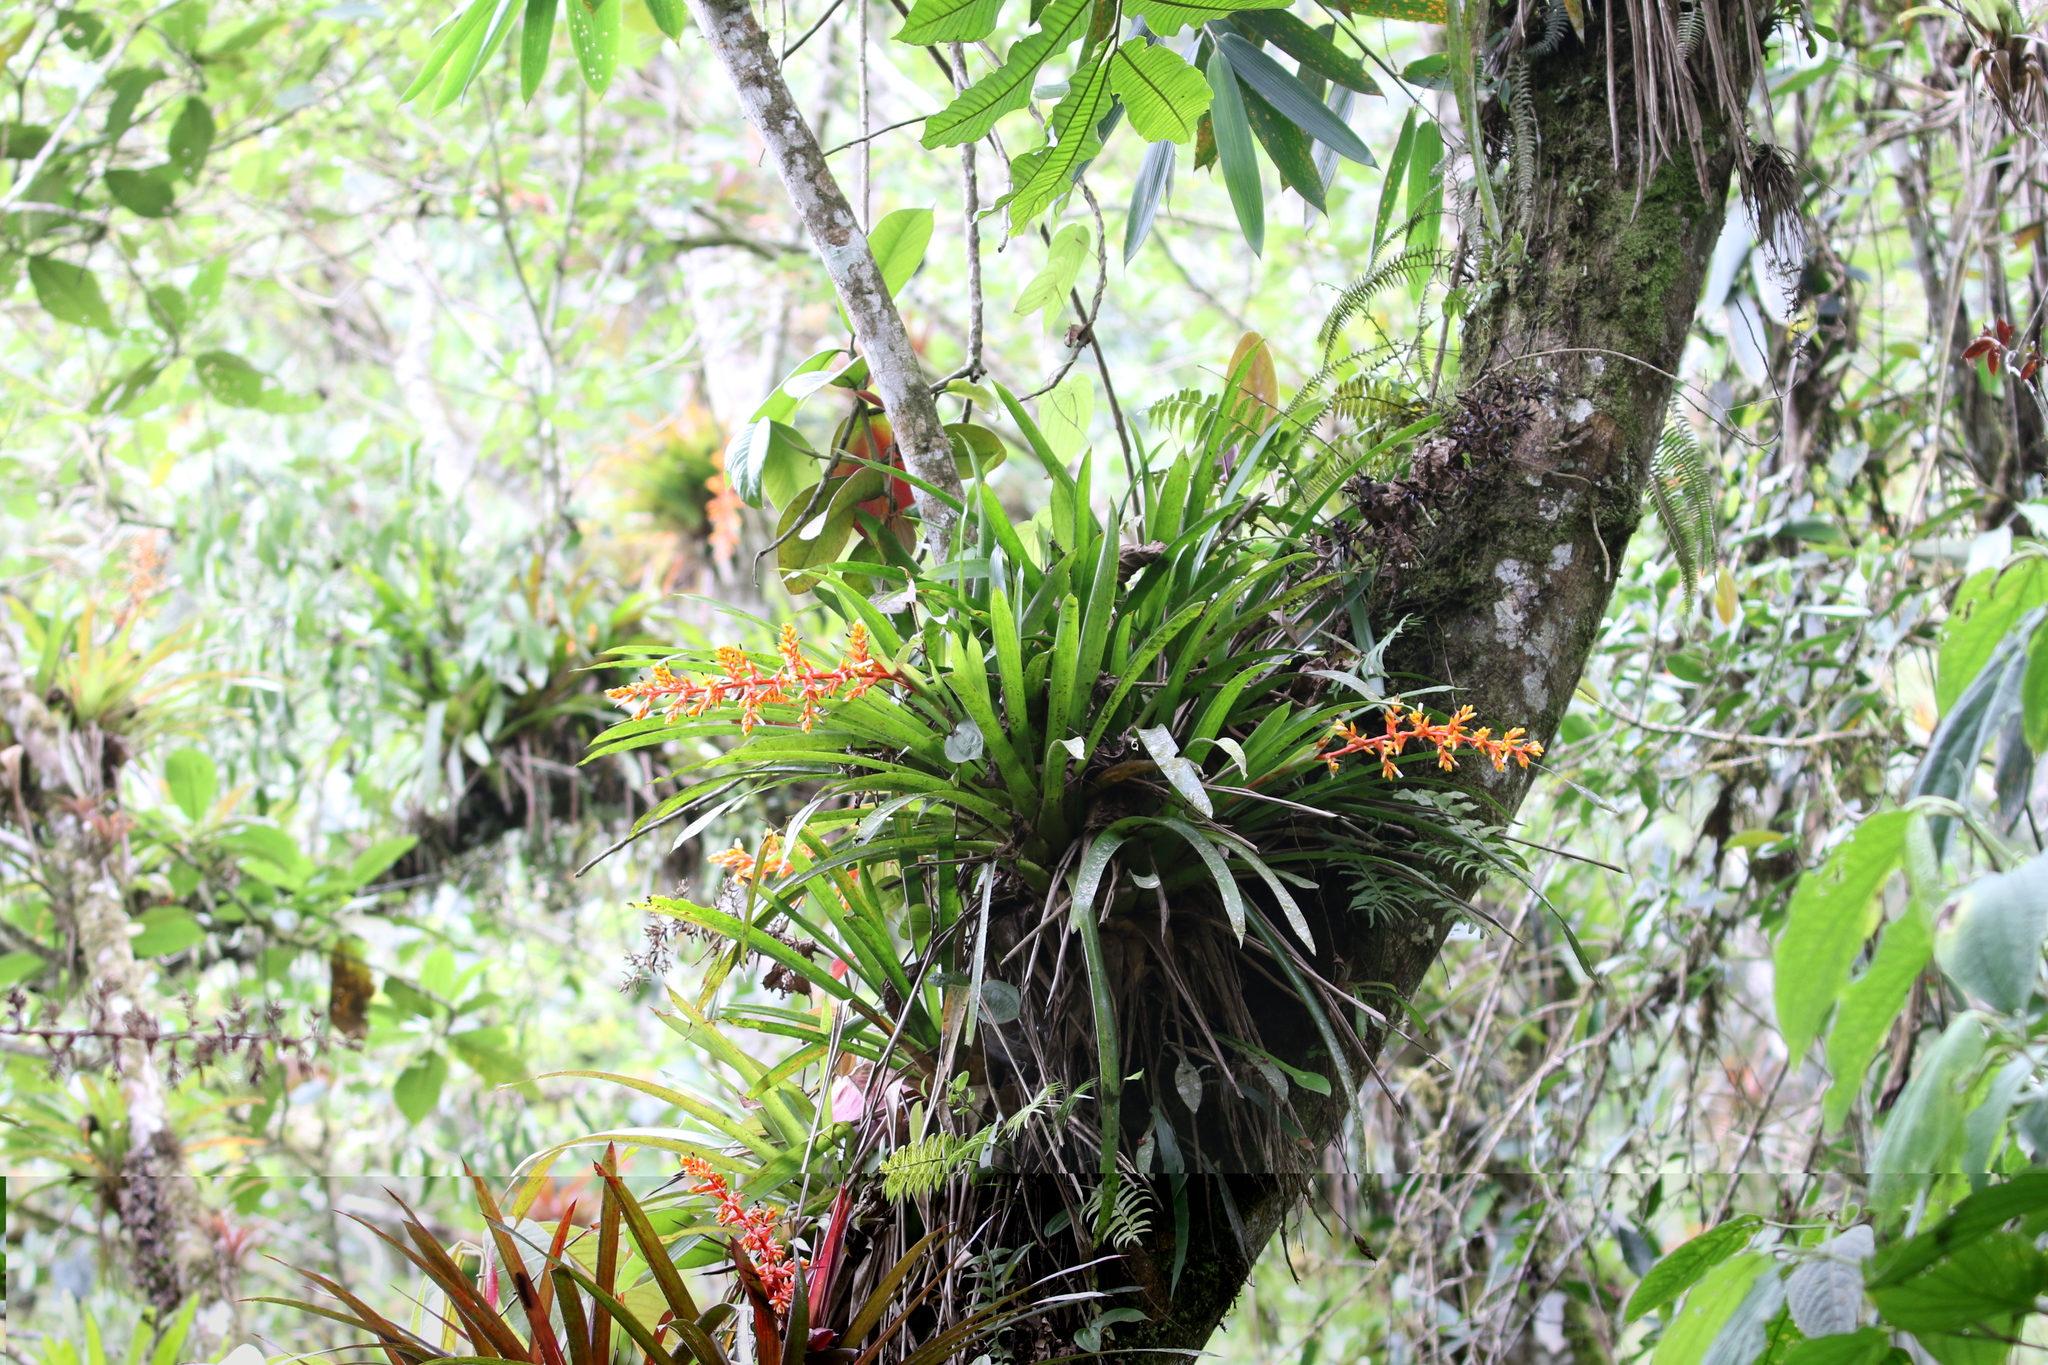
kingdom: Plantae
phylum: Tracheophyta
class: Liliopsida
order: Poales
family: Bromeliaceae
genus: Guzmania
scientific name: Guzmania multiflora
